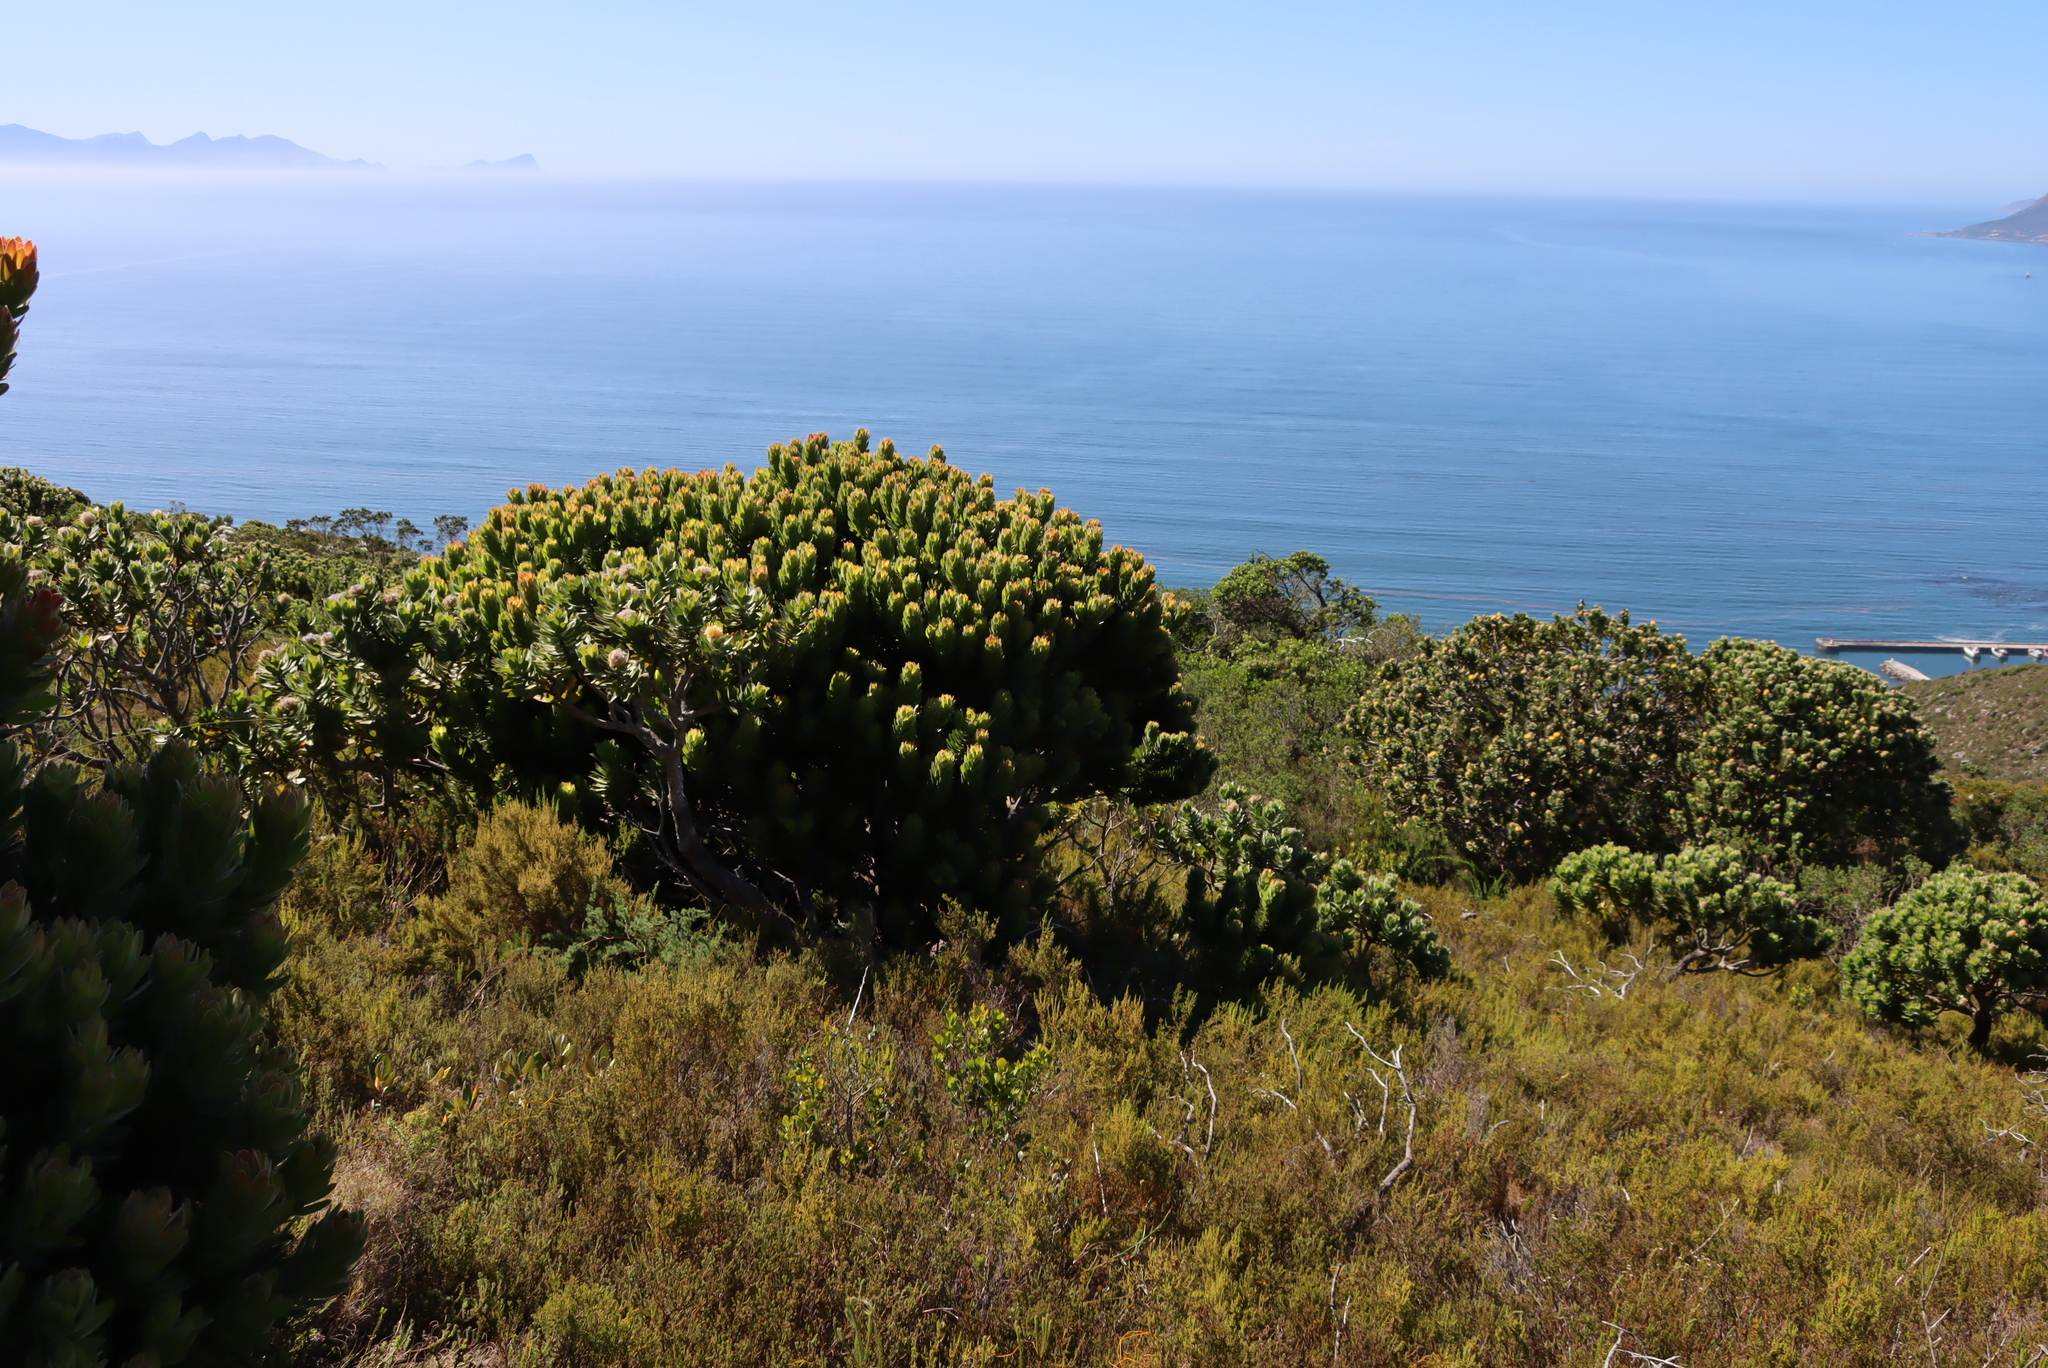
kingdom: Plantae
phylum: Tracheophyta
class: Magnoliopsida
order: Proteales
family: Proteaceae
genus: Mimetes
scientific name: Mimetes fimbriifolius
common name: Fringed bottlebrush
